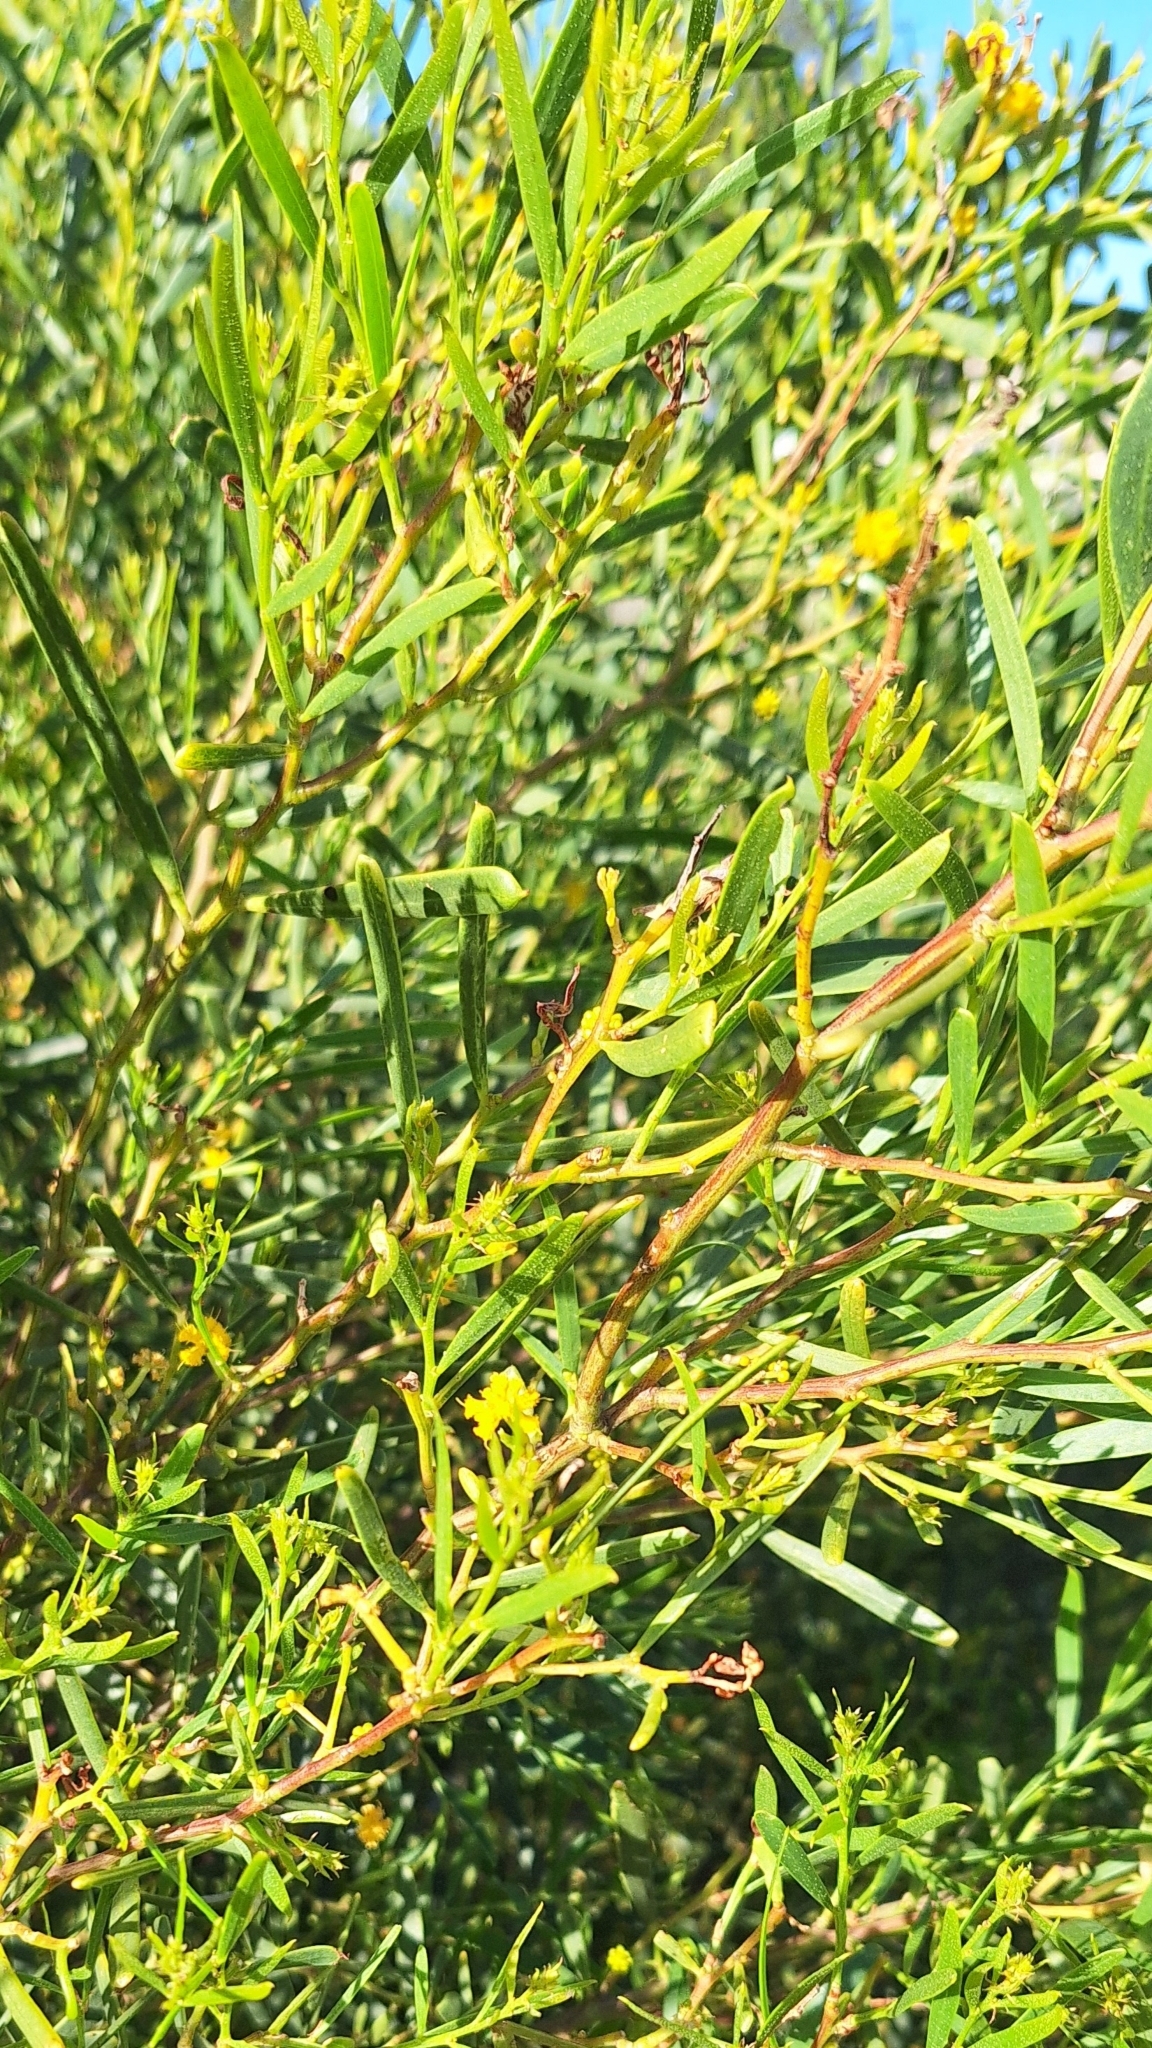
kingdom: Plantae
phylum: Tracheophyta
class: Magnoliopsida
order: Fabales
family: Fabaceae
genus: Acacia
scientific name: Acacia ligulata
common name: Dune wattle
